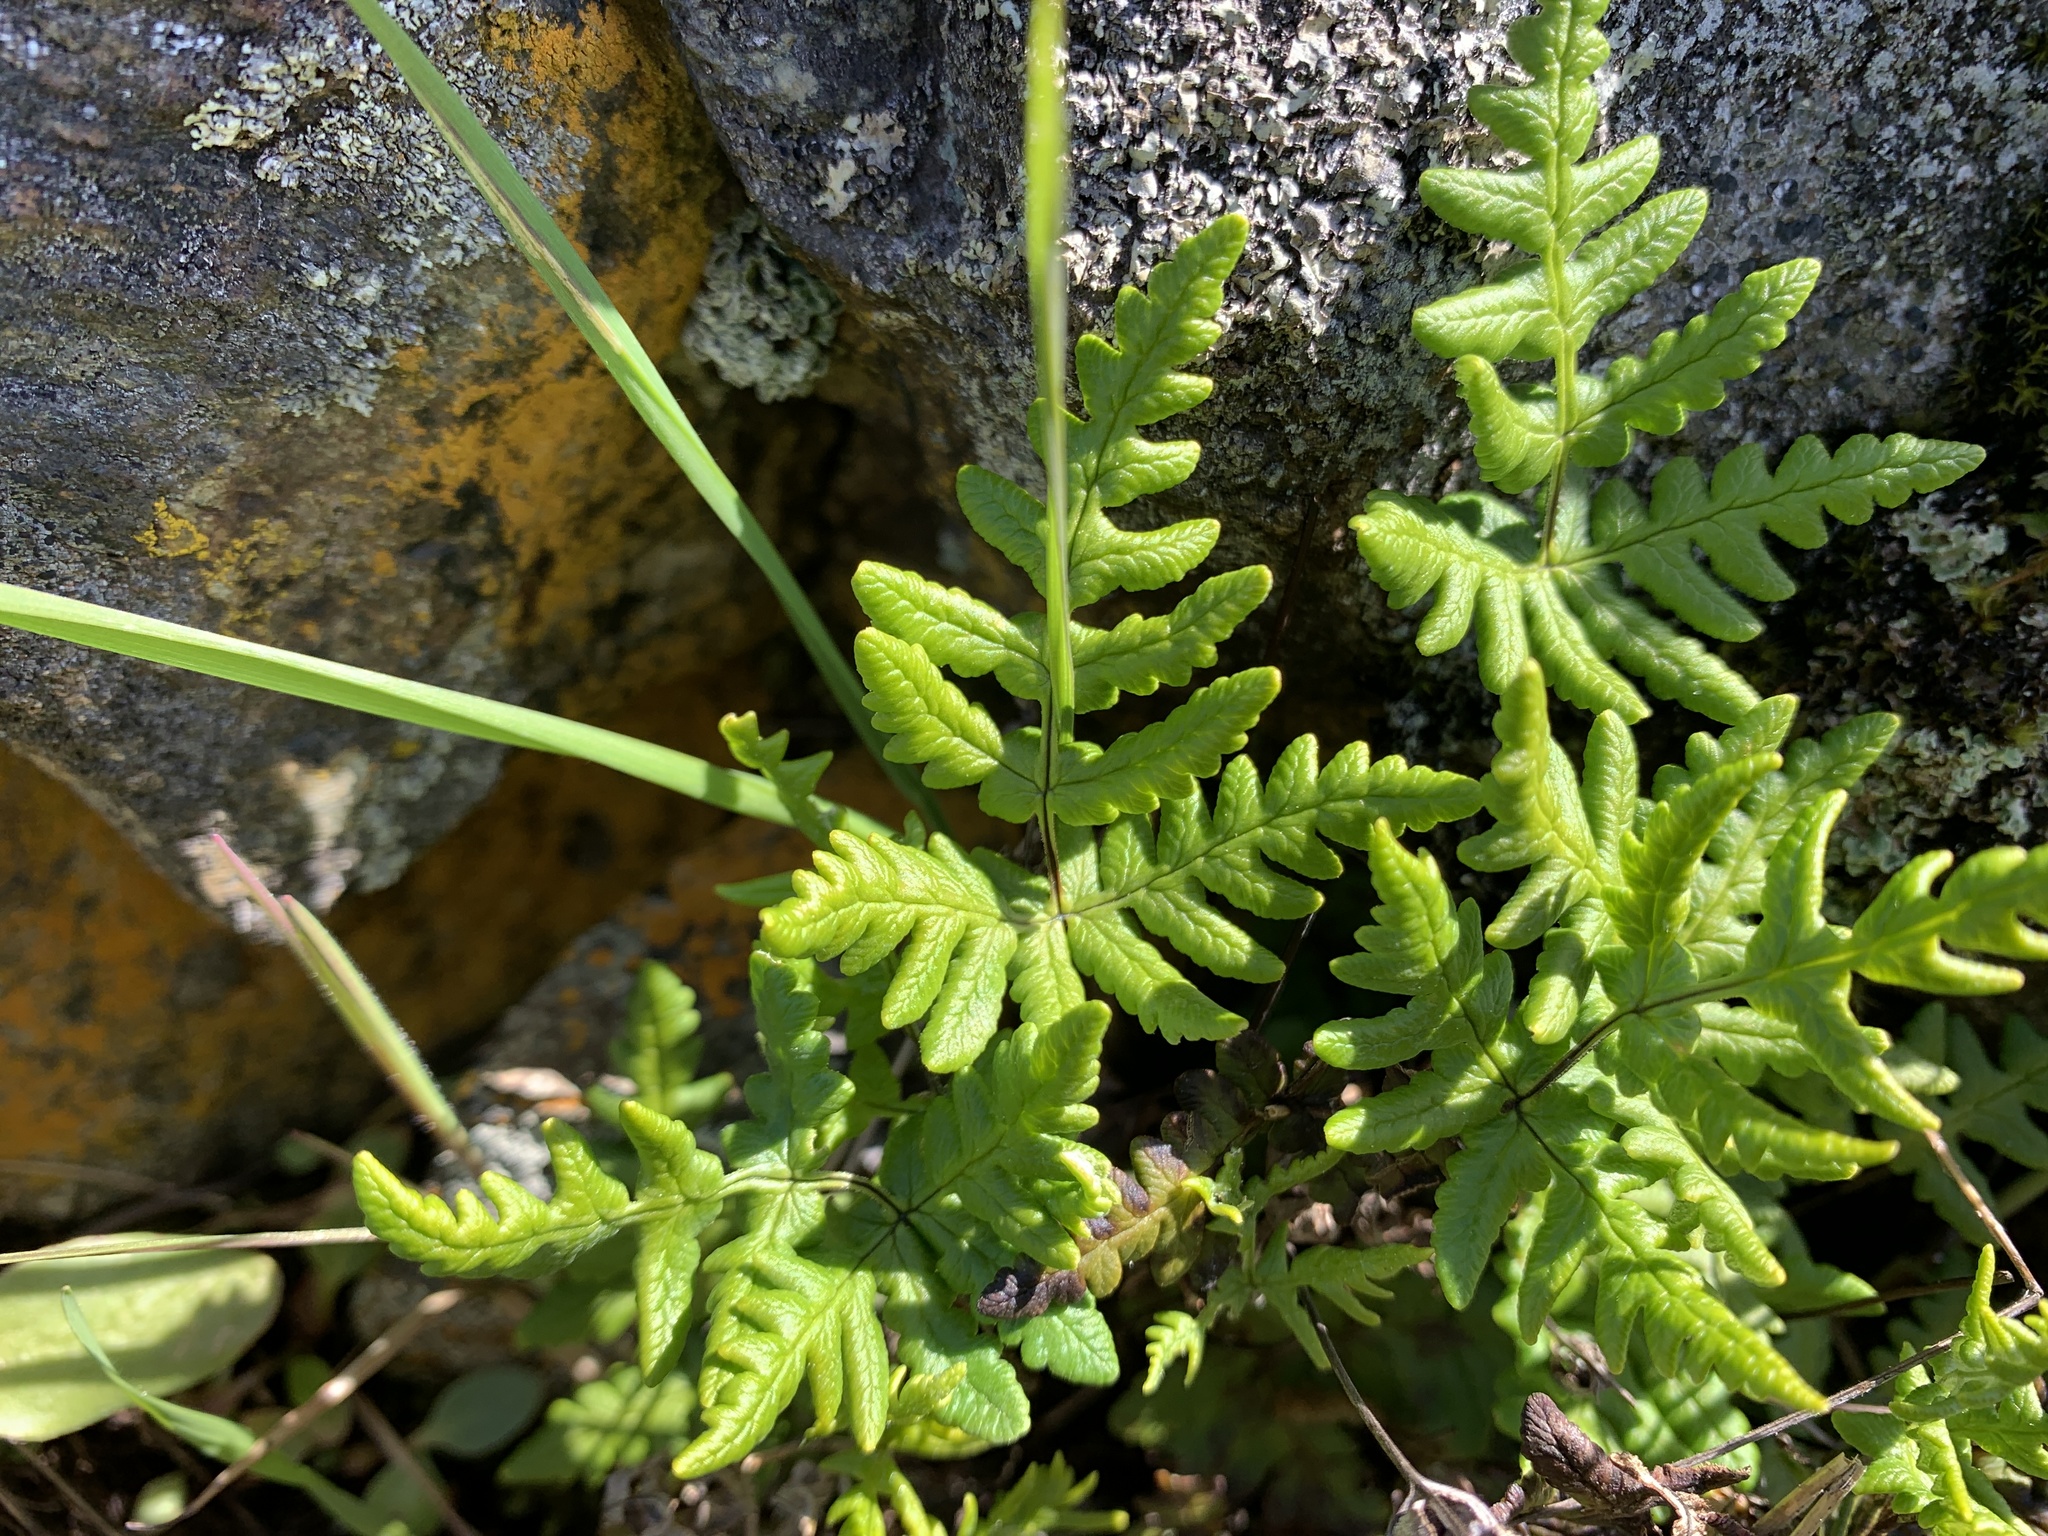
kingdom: Plantae
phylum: Tracheophyta
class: Polypodiopsida
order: Polypodiales
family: Pteridaceae
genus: Pentagramma
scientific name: Pentagramma triangularis
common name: Gold fern
